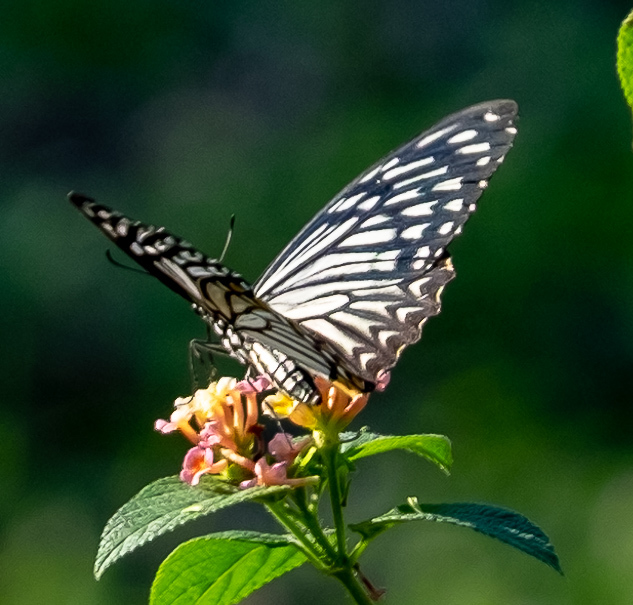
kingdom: Animalia
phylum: Arthropoda
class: Insecta
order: Lepidoptera
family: Papilionidae
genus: Chilasa
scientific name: Chilasa clytia
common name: Common mime
